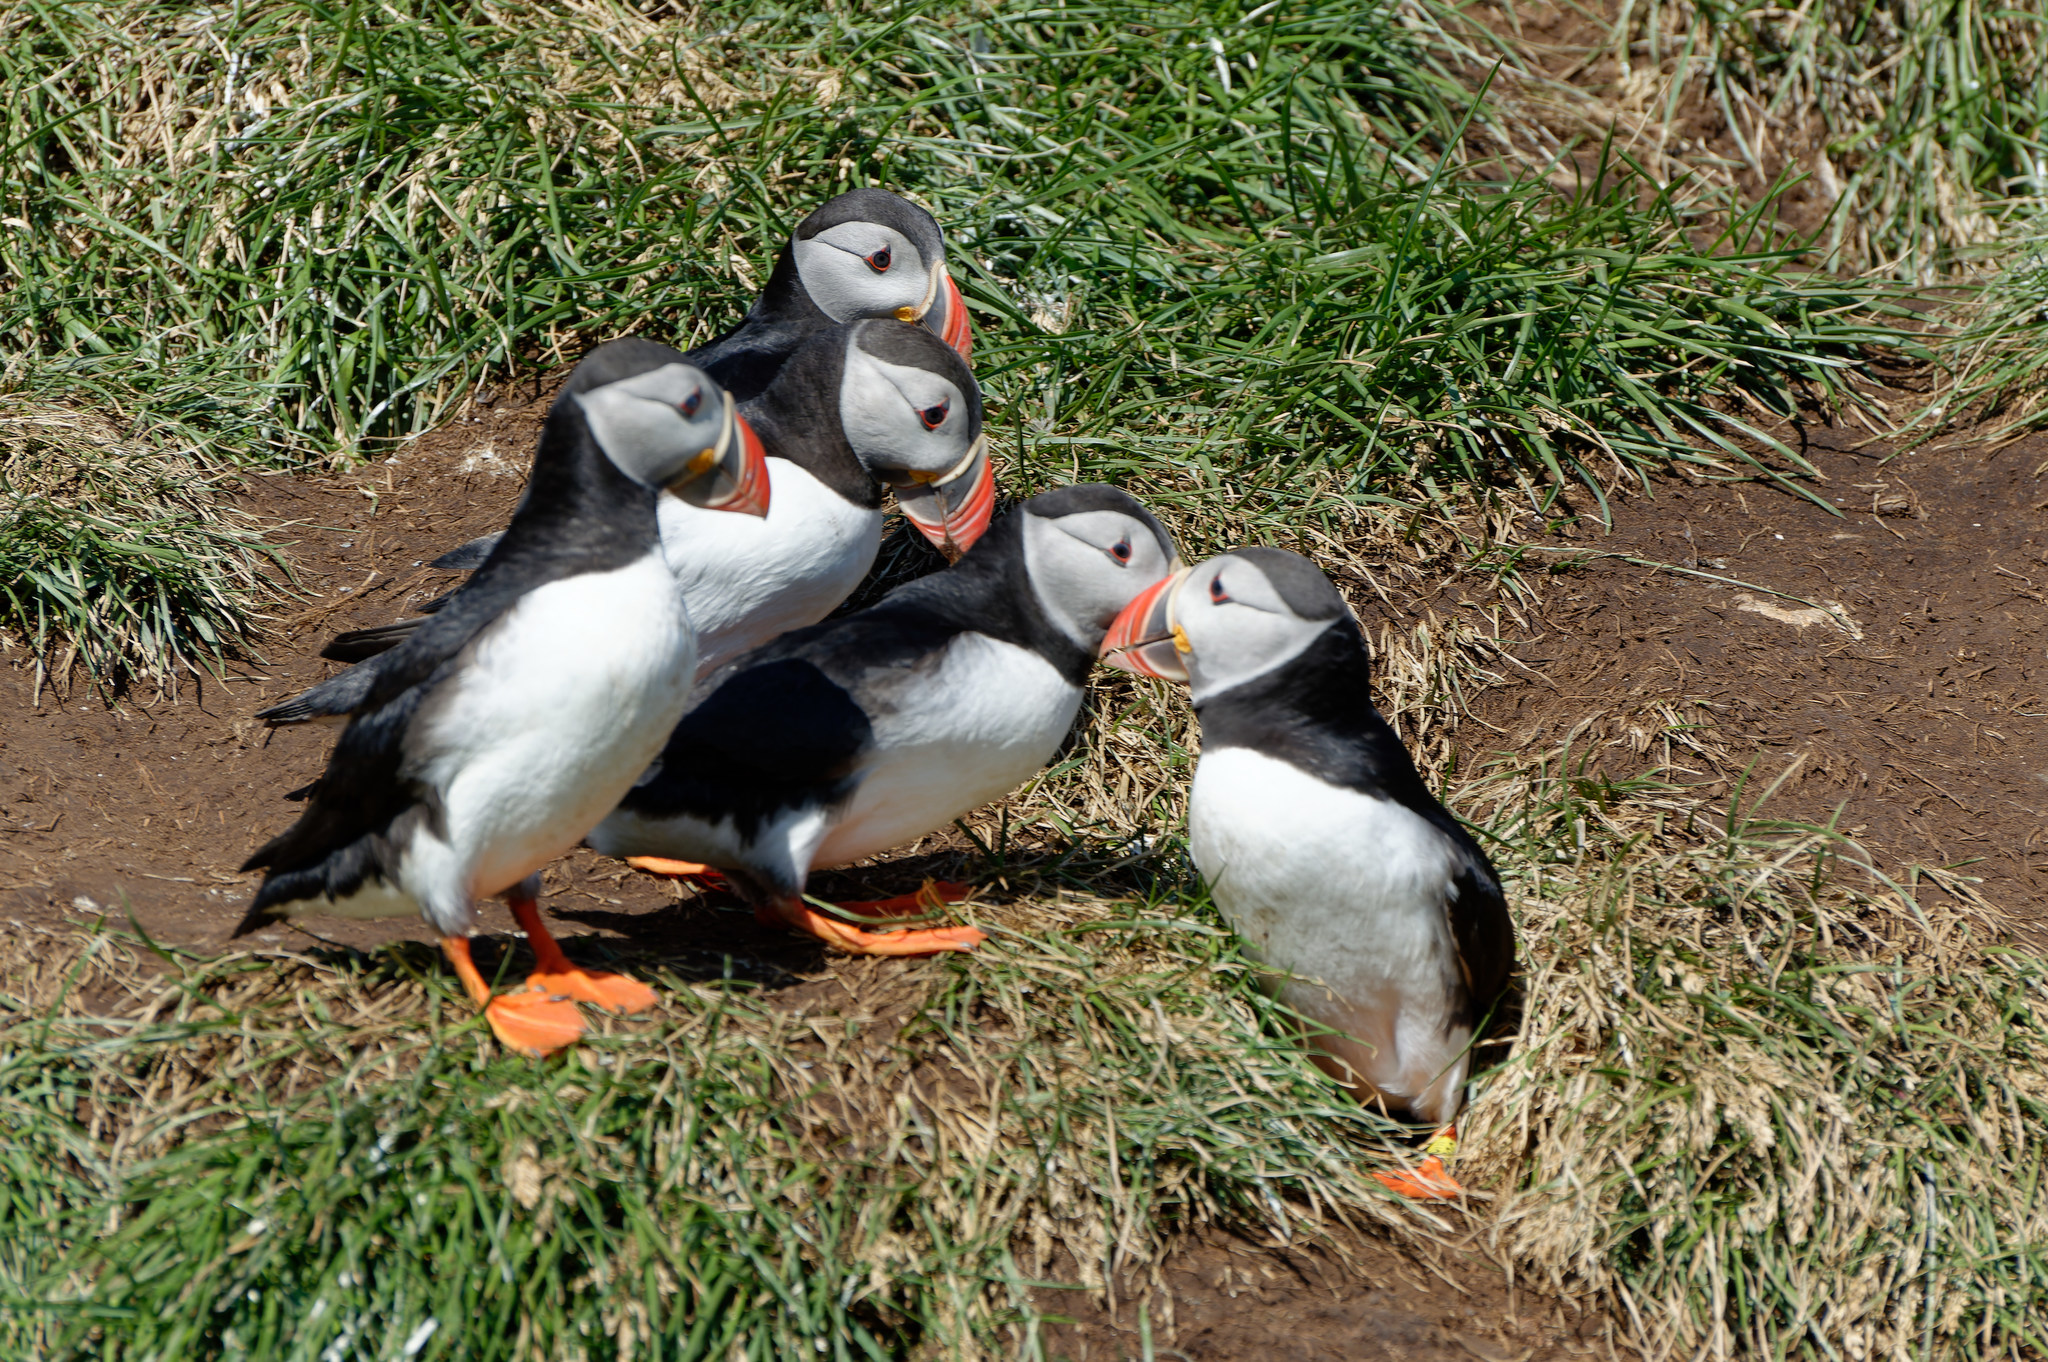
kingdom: Animalia
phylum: Chordata
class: Aves
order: Charadriiformes
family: Alcidae
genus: Fratercula
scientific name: Fratercula arctica
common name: Atlantic puffin
